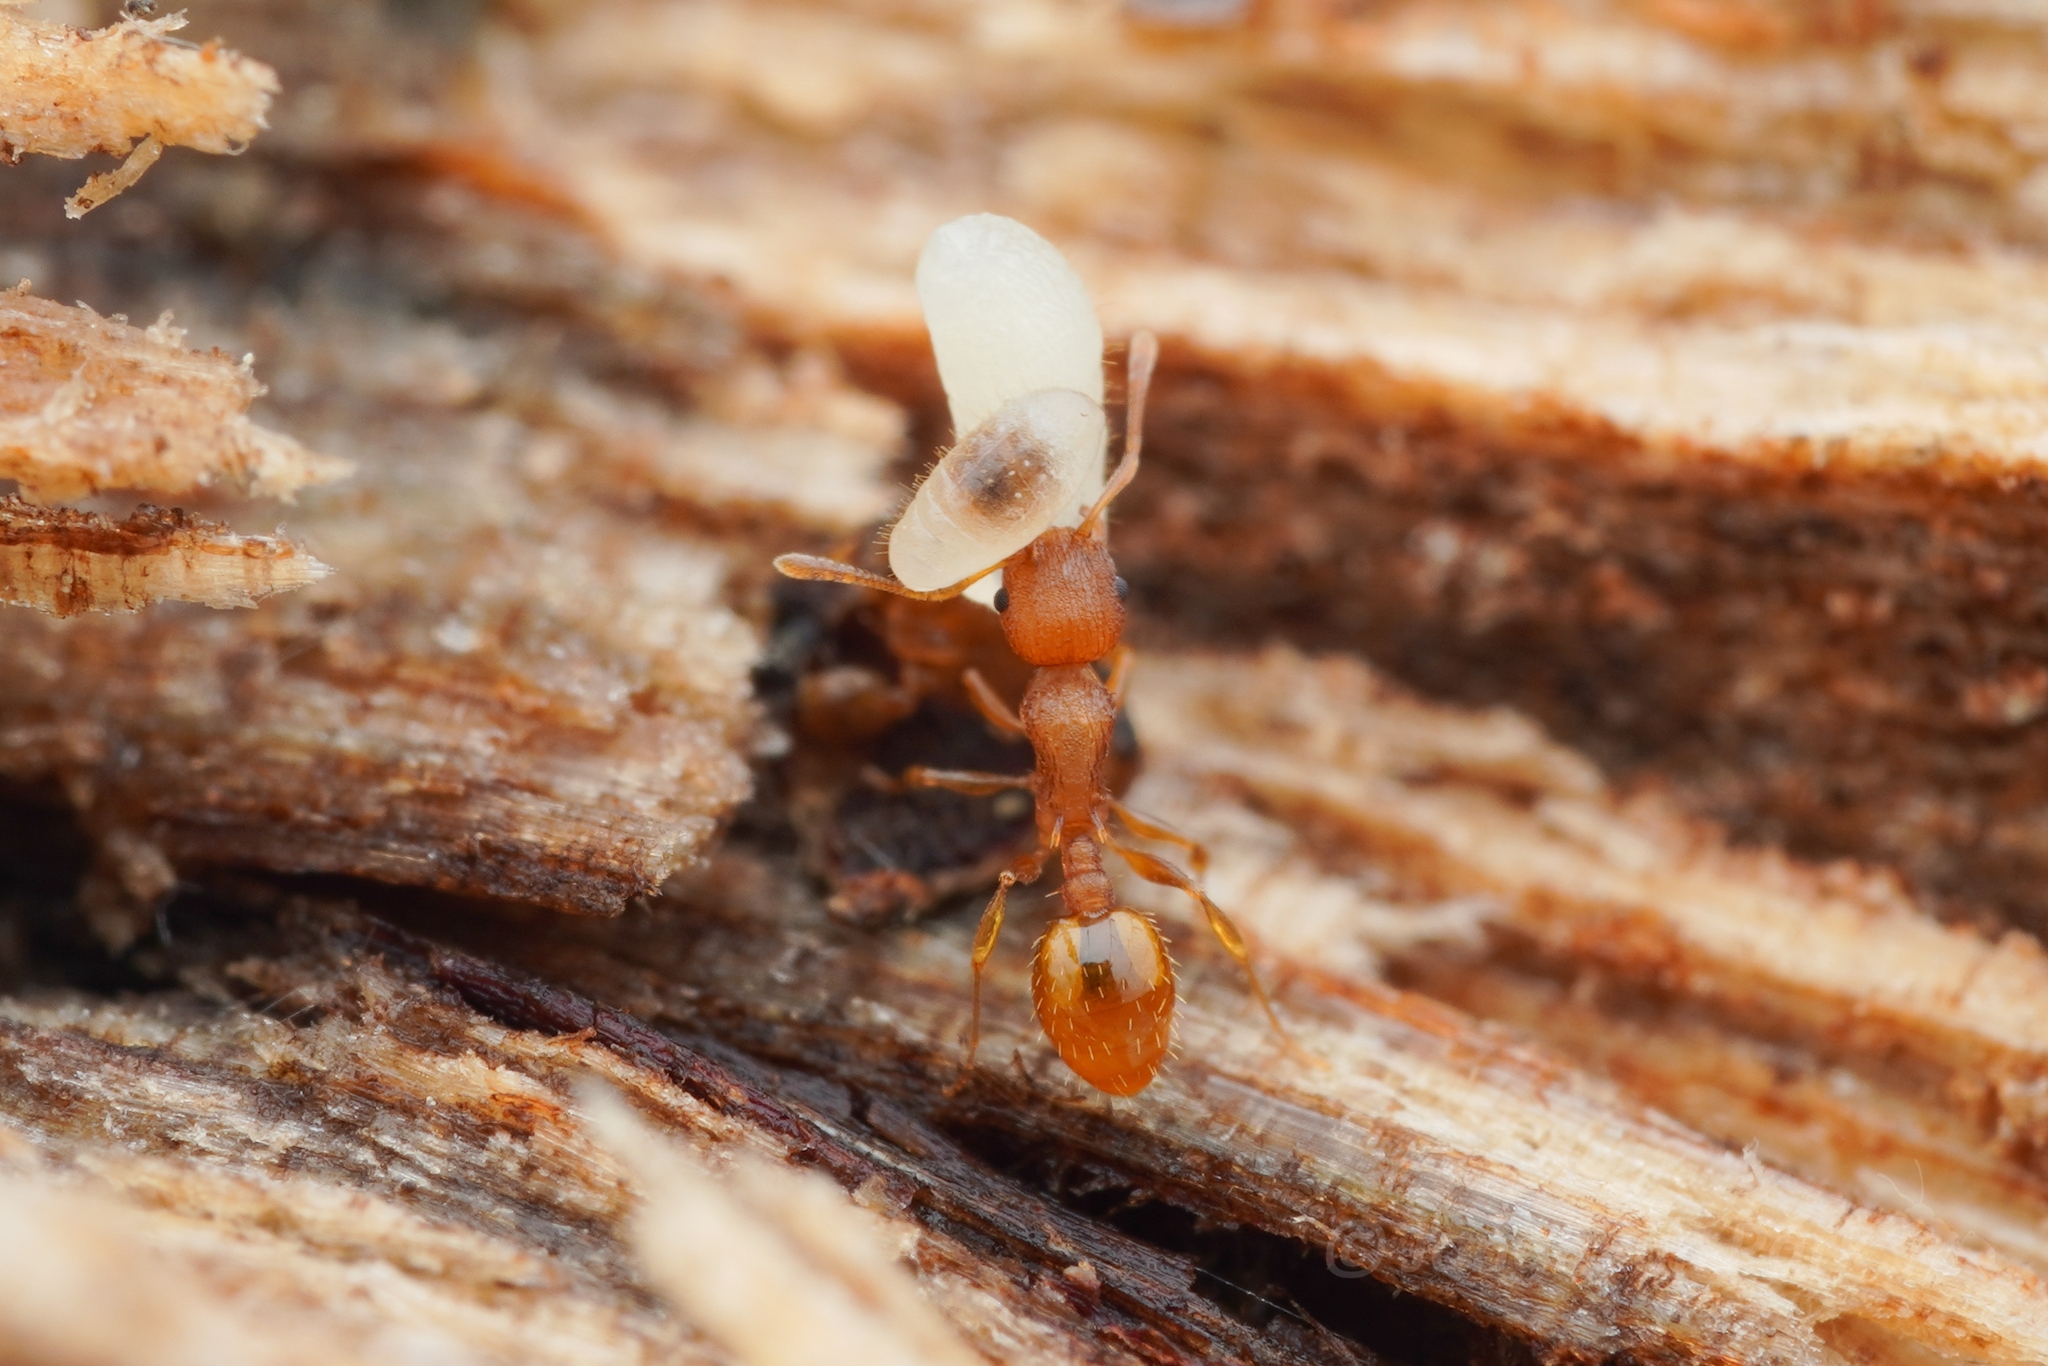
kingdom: Animalia
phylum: Arthropoda
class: Insecta
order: Hymenoptera
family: Formicidae
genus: Temnothorax
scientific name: Temnothorax
